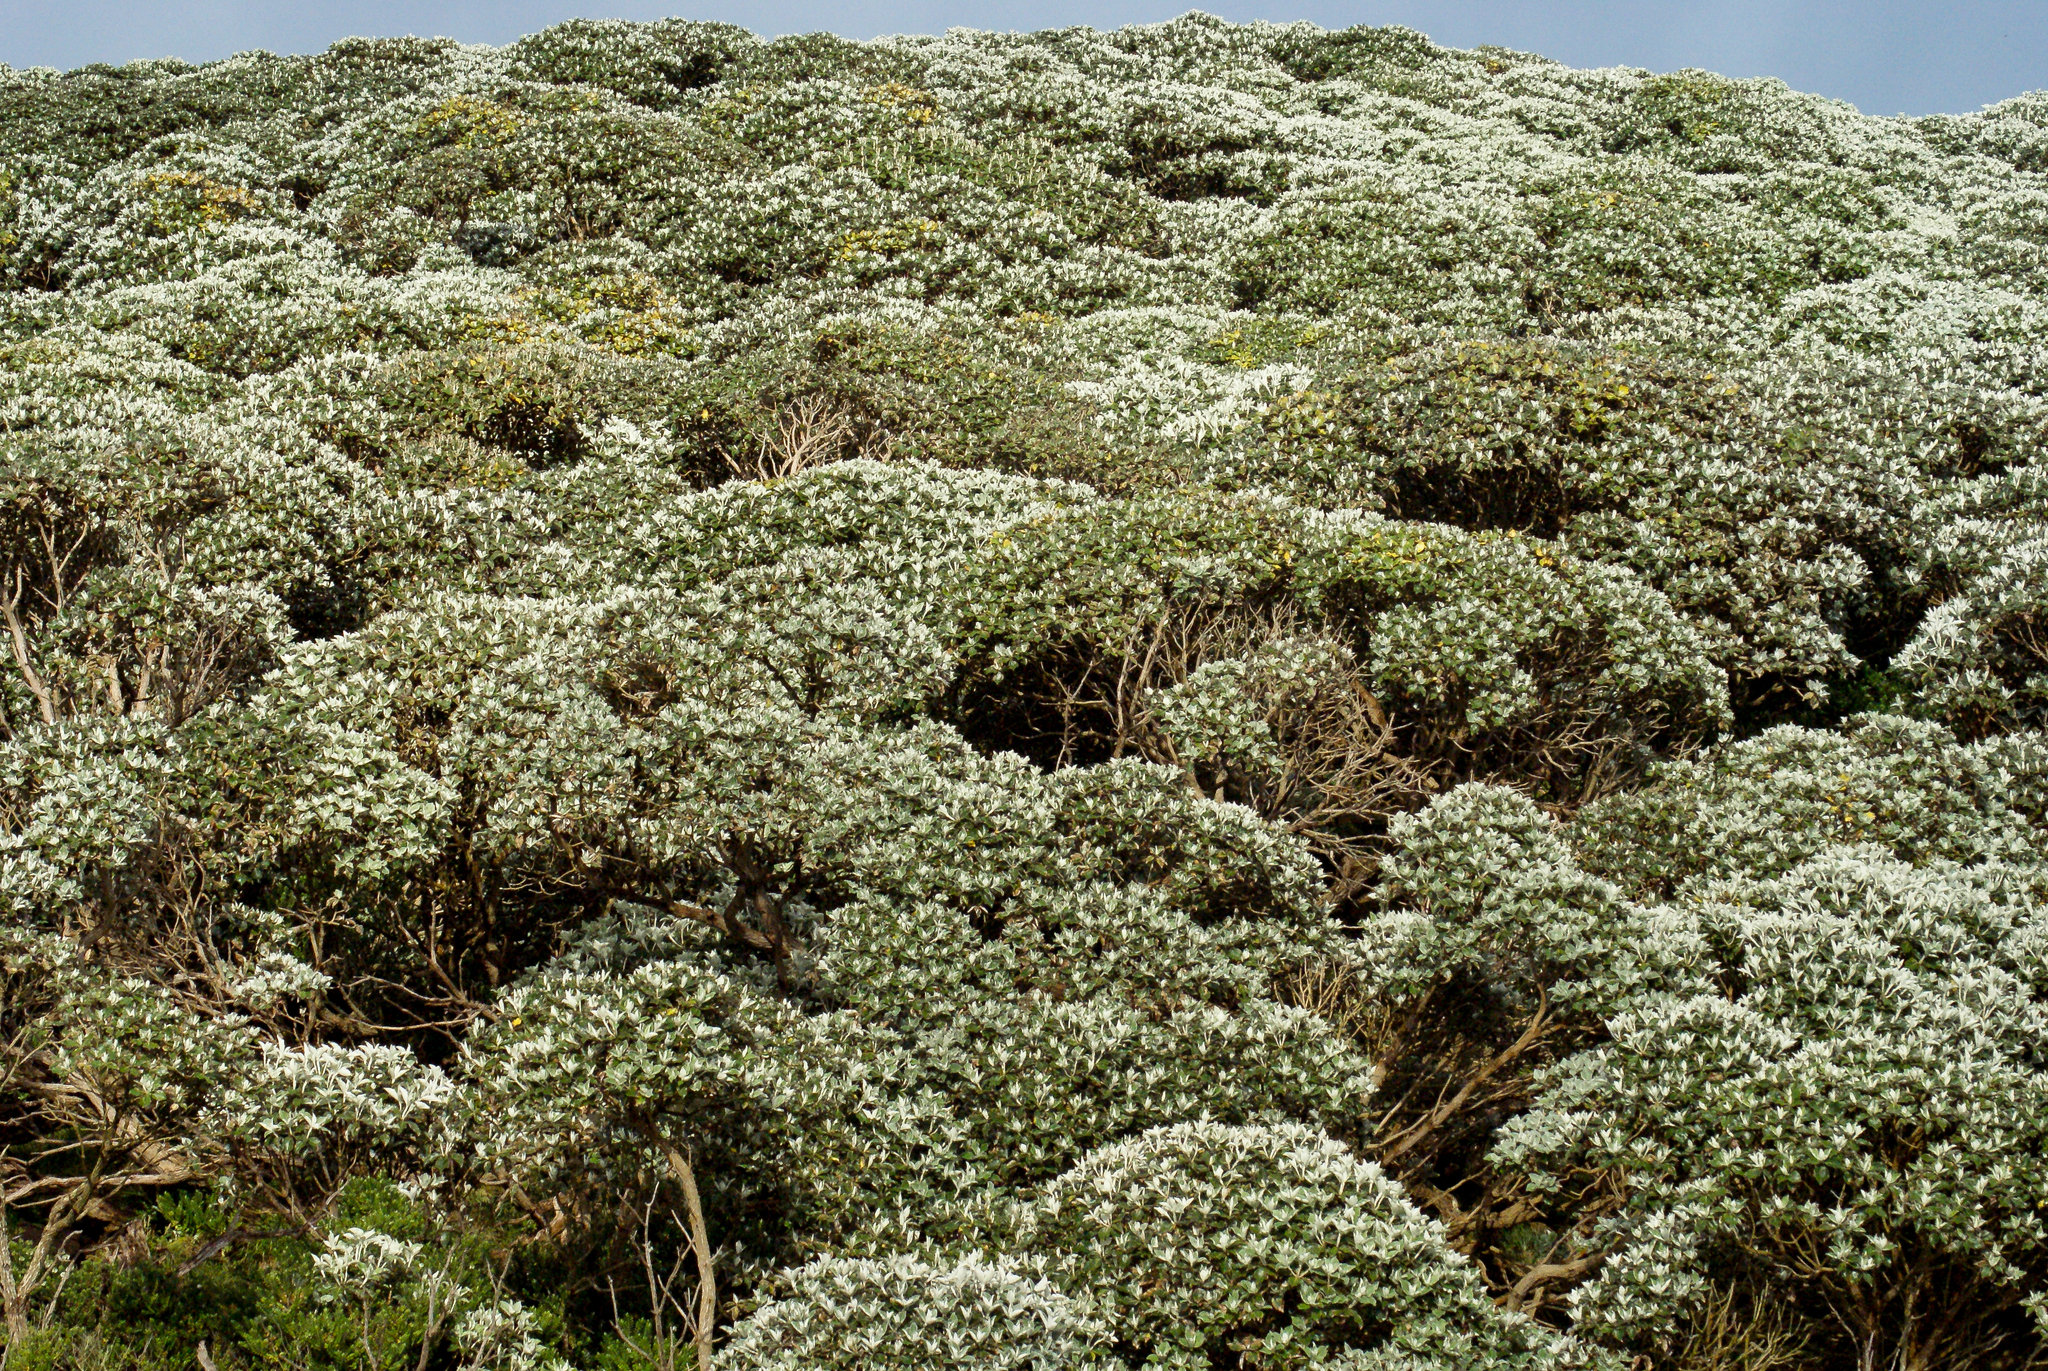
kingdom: Plantae
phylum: Tracheophyta
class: Magnoliopsida
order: Asterales
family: Asteraceae
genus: Macrolearia
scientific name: Macrolearia lyallii
